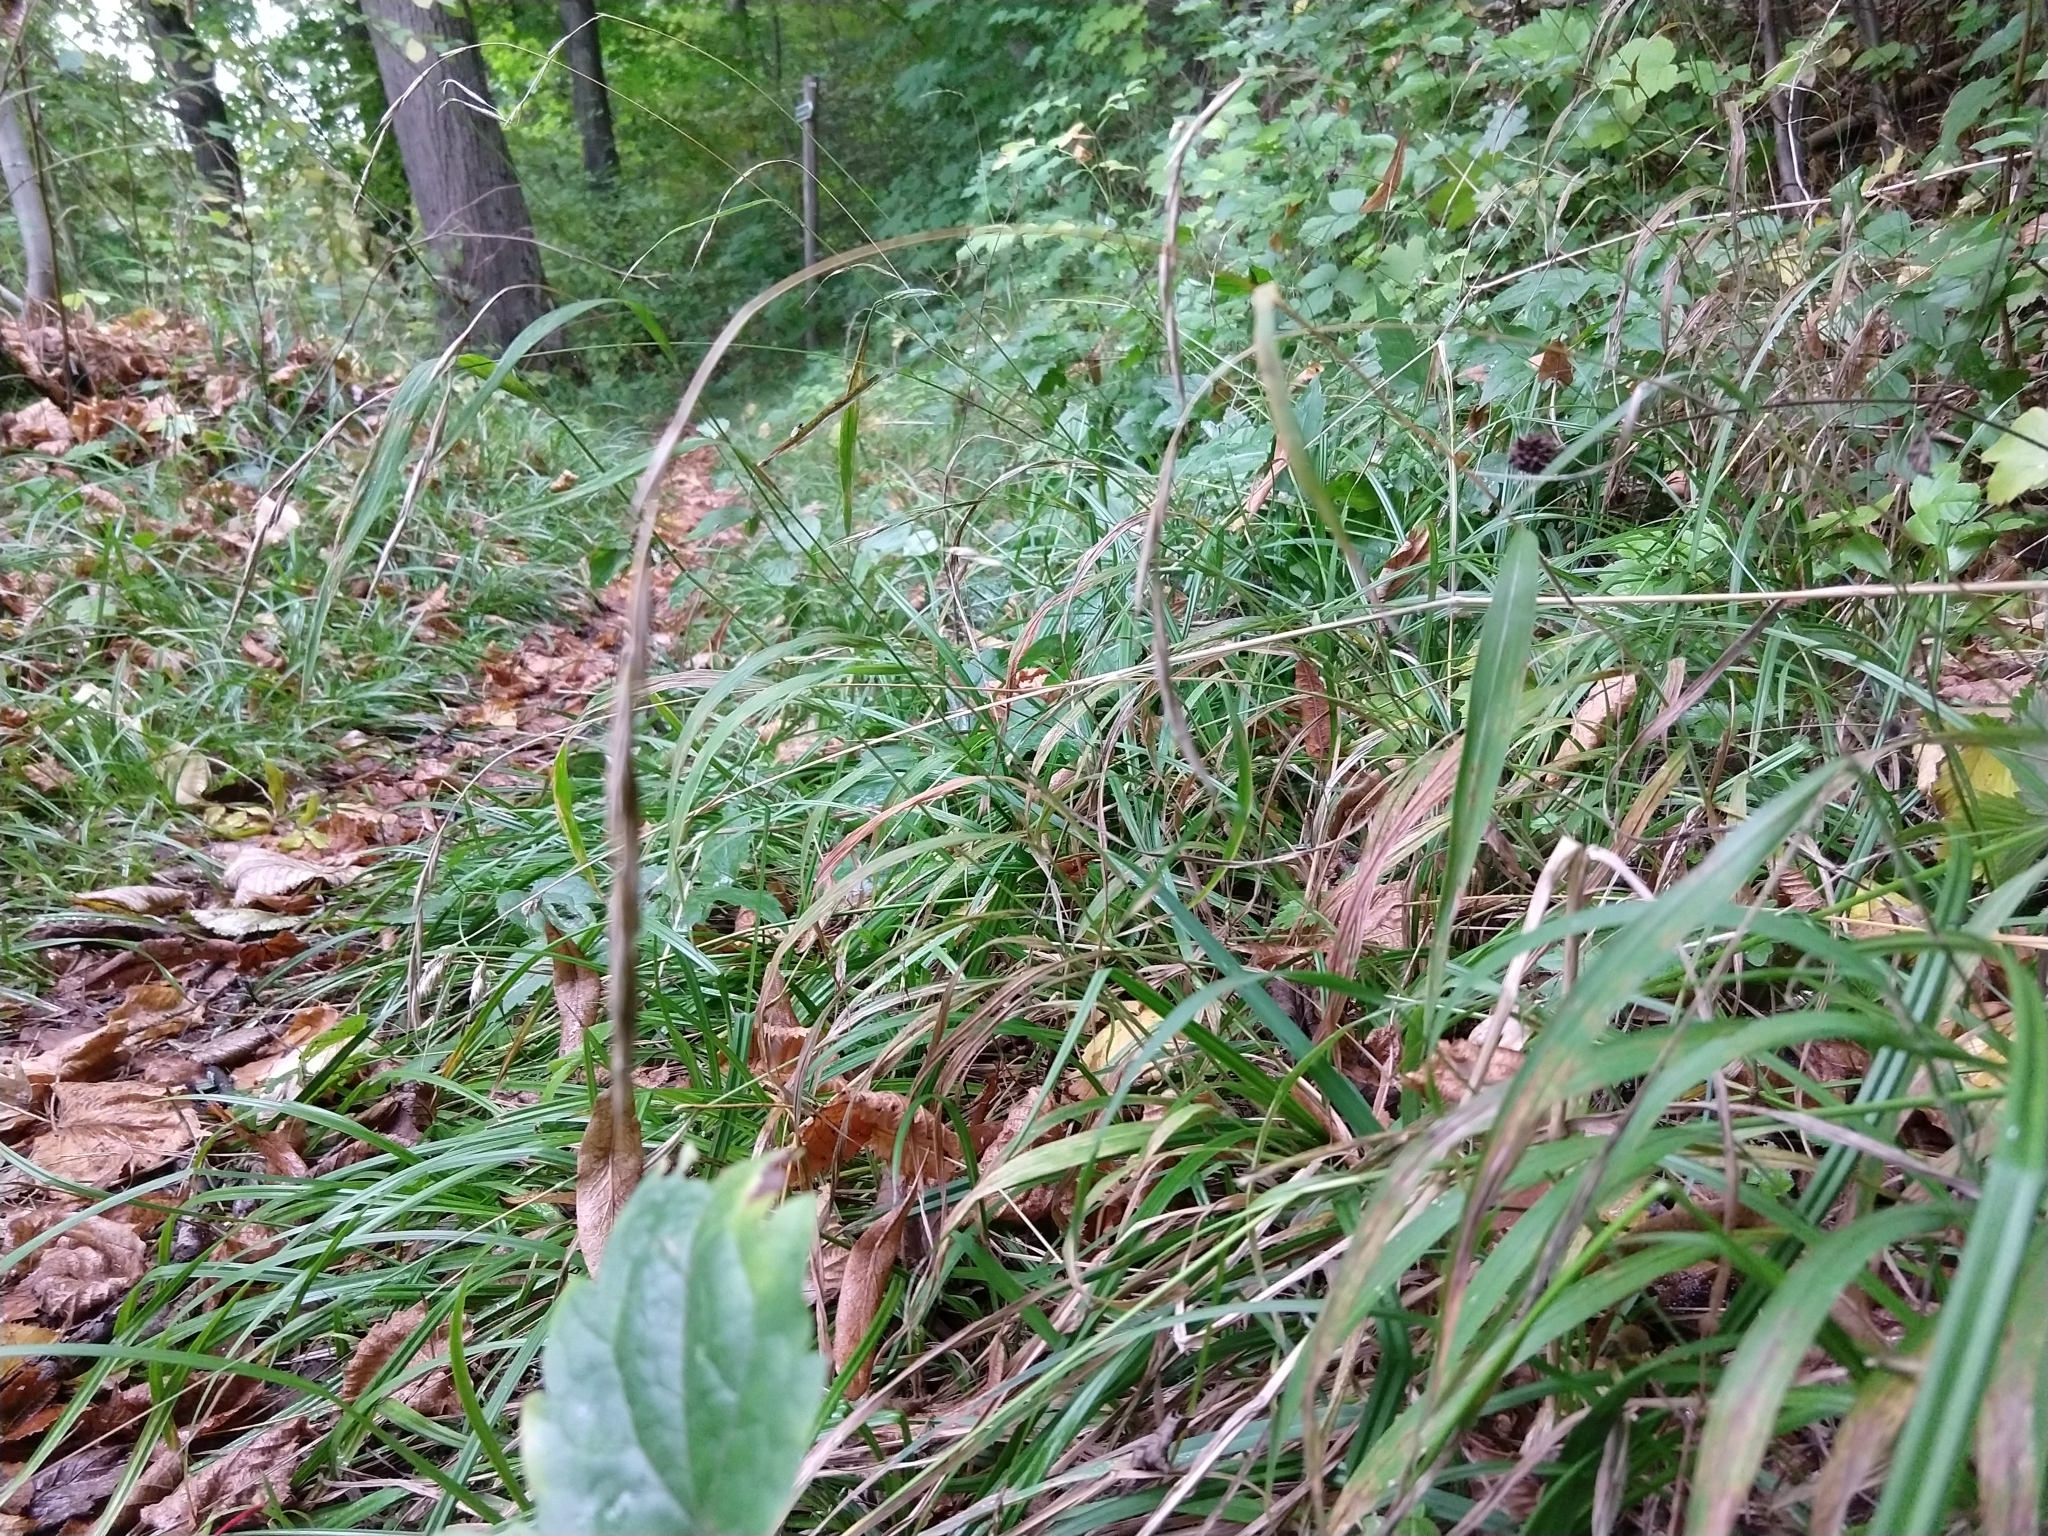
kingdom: Plantae
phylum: Tracheophyta
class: Liliopsida
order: Poales
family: Poaceae
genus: Brachypodium
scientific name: Brachypodium sylvaticum
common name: False-brome
